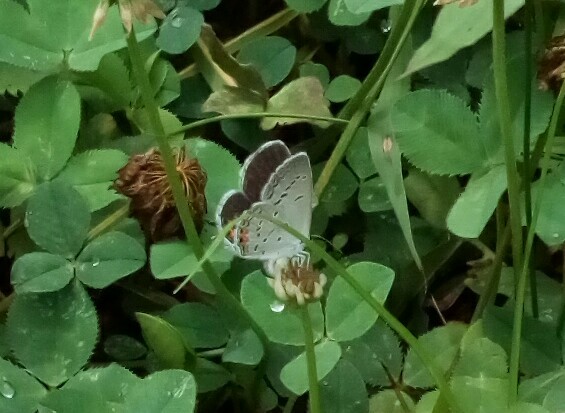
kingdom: Animalia
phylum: Arthropoda
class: Insecta
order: Lepidoptera
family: Lycaenidae
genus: Elkalyce
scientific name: Elkalyce comyntas
